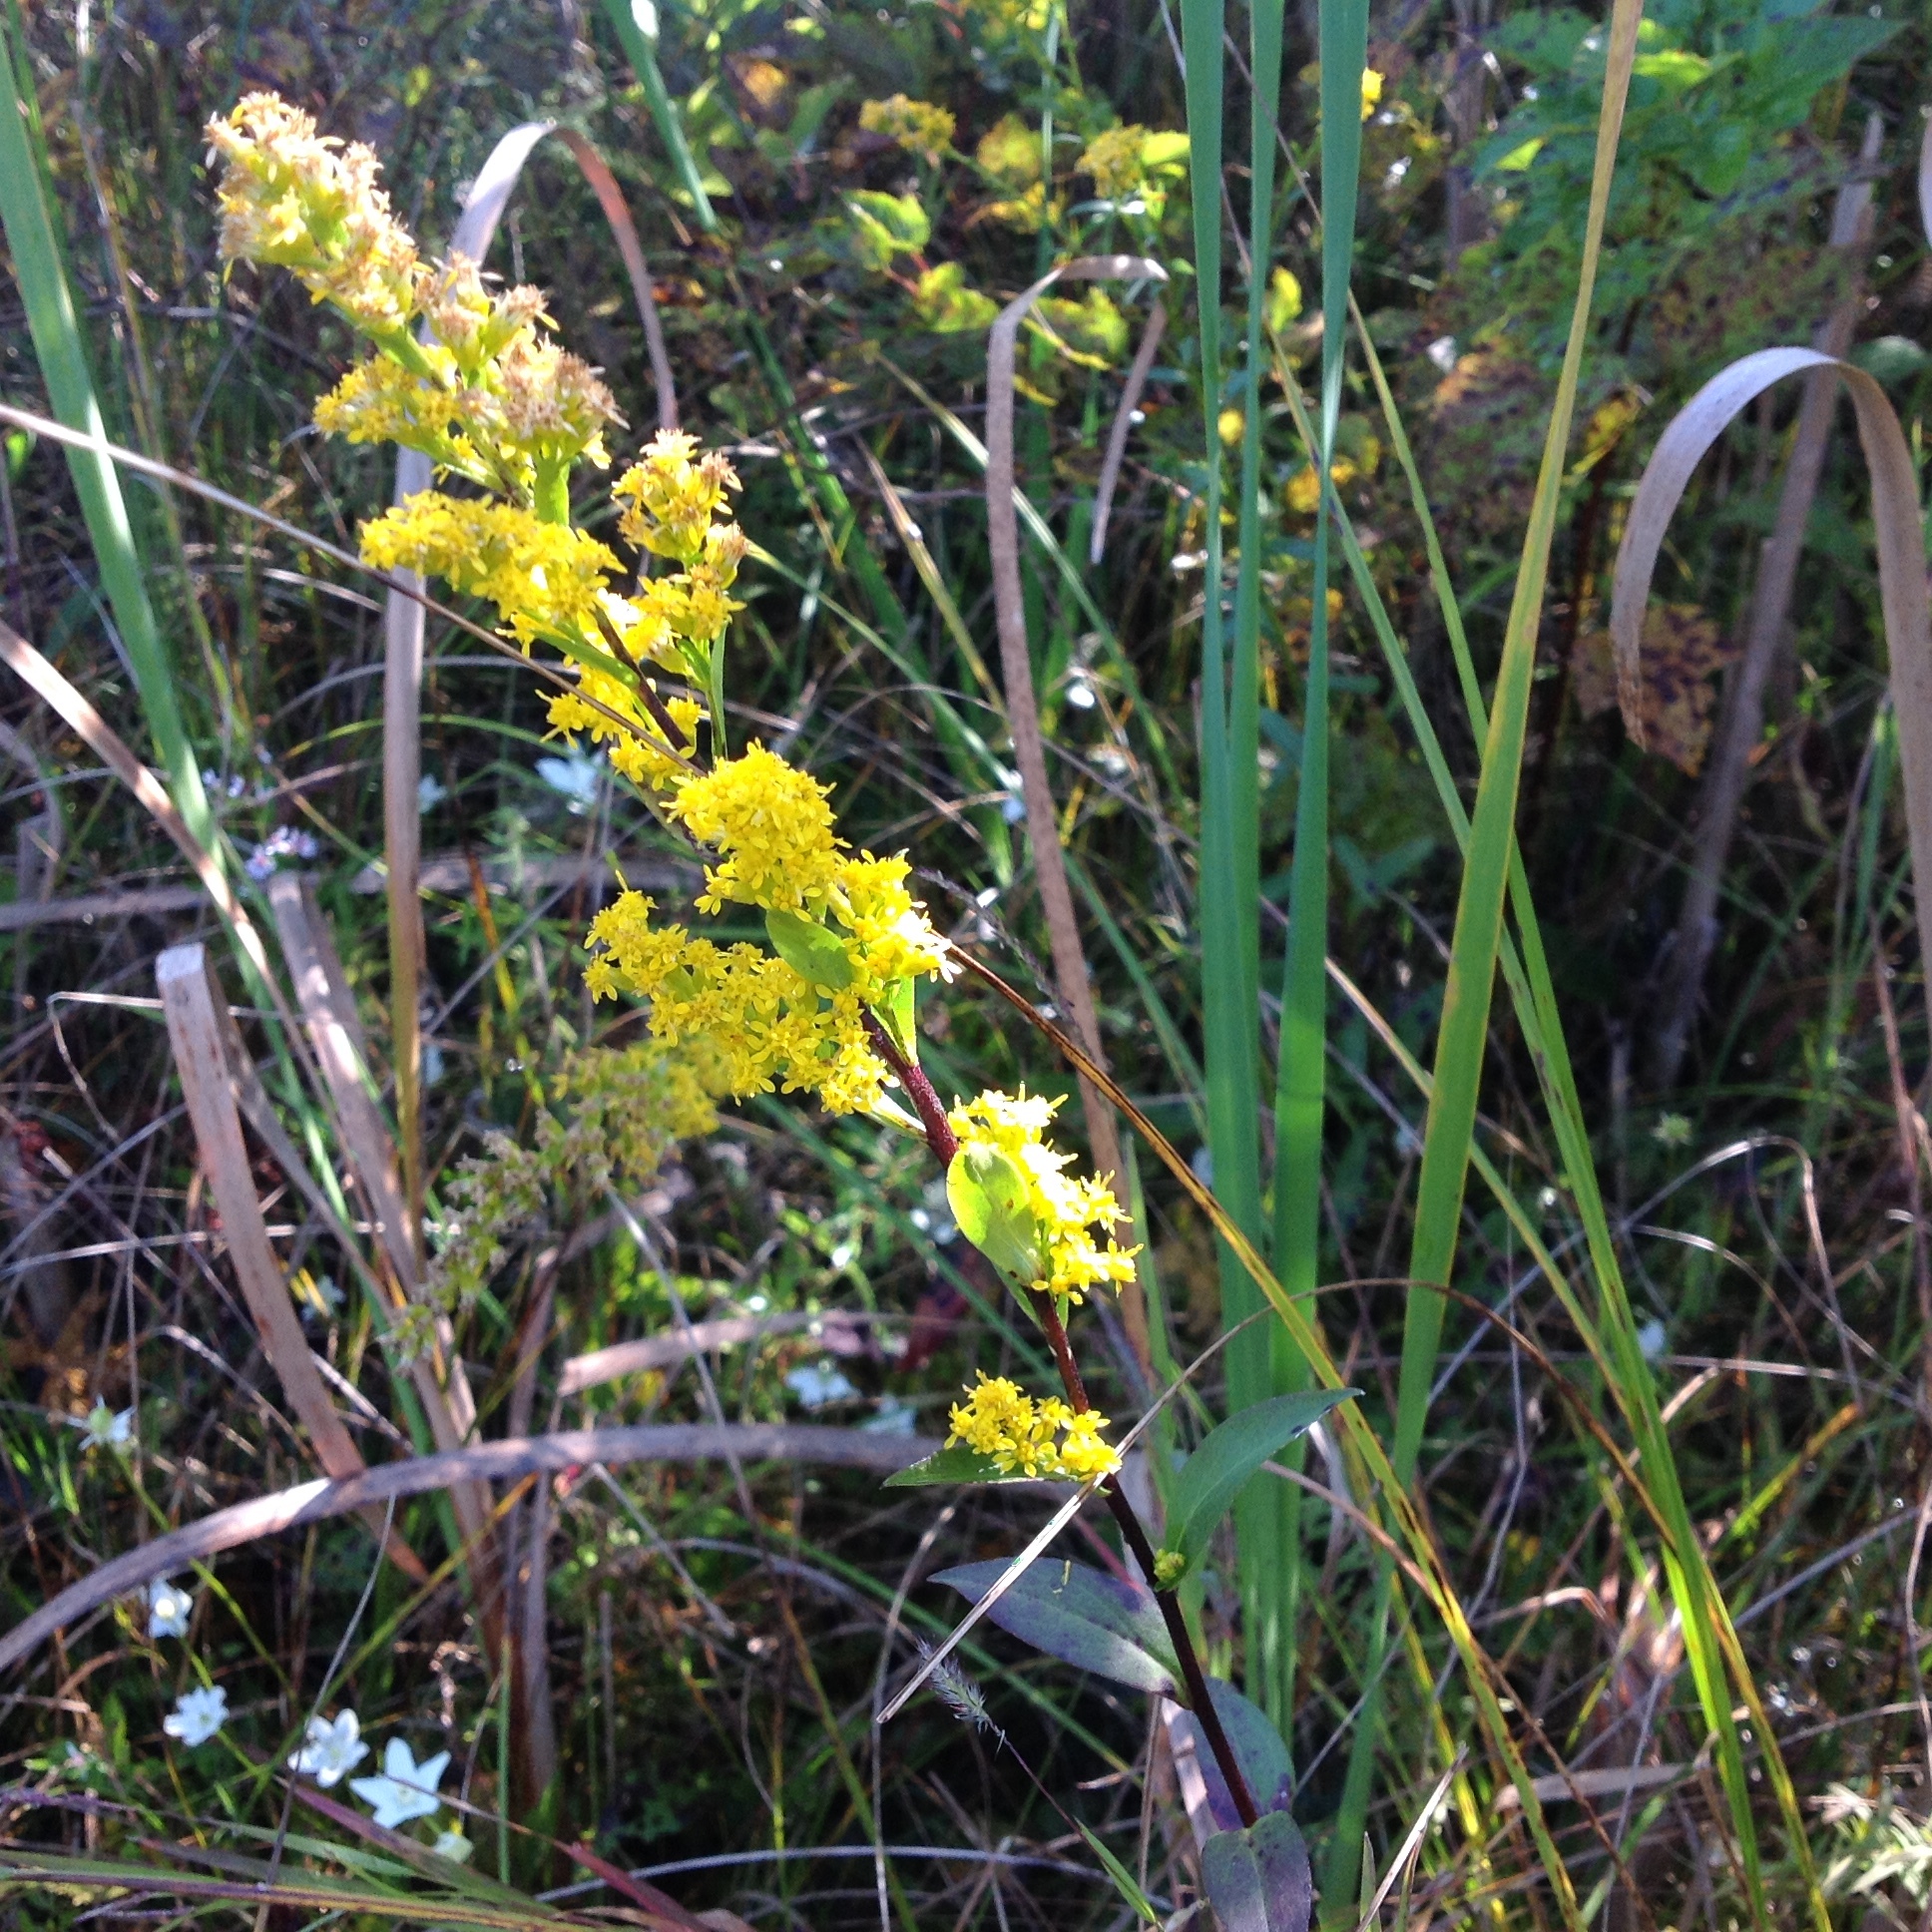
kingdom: Plantae
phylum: Tracheophyta
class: Magnoliopsida
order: Asterales
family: Asteraceae
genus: Solidago
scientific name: Solidago uliginosa
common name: Bog goldenrod
